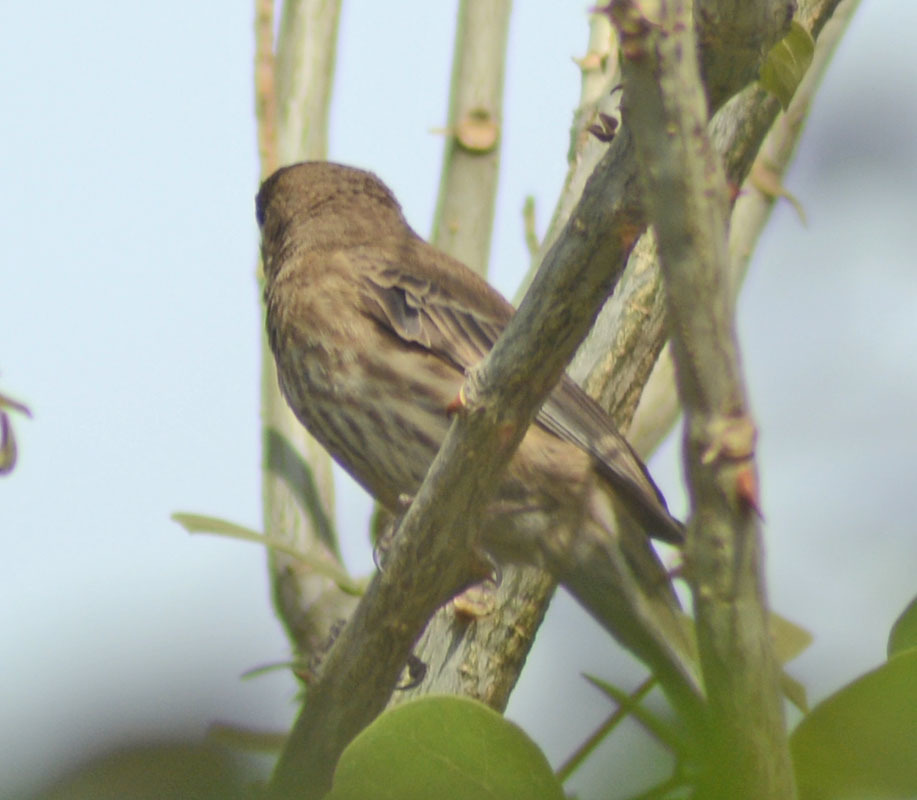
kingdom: Animalia
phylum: Chordata
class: Aves
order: Passeriformes
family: Fringillidae
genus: Haemorhous
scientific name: Haemorhous mexicanus
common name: House finch
